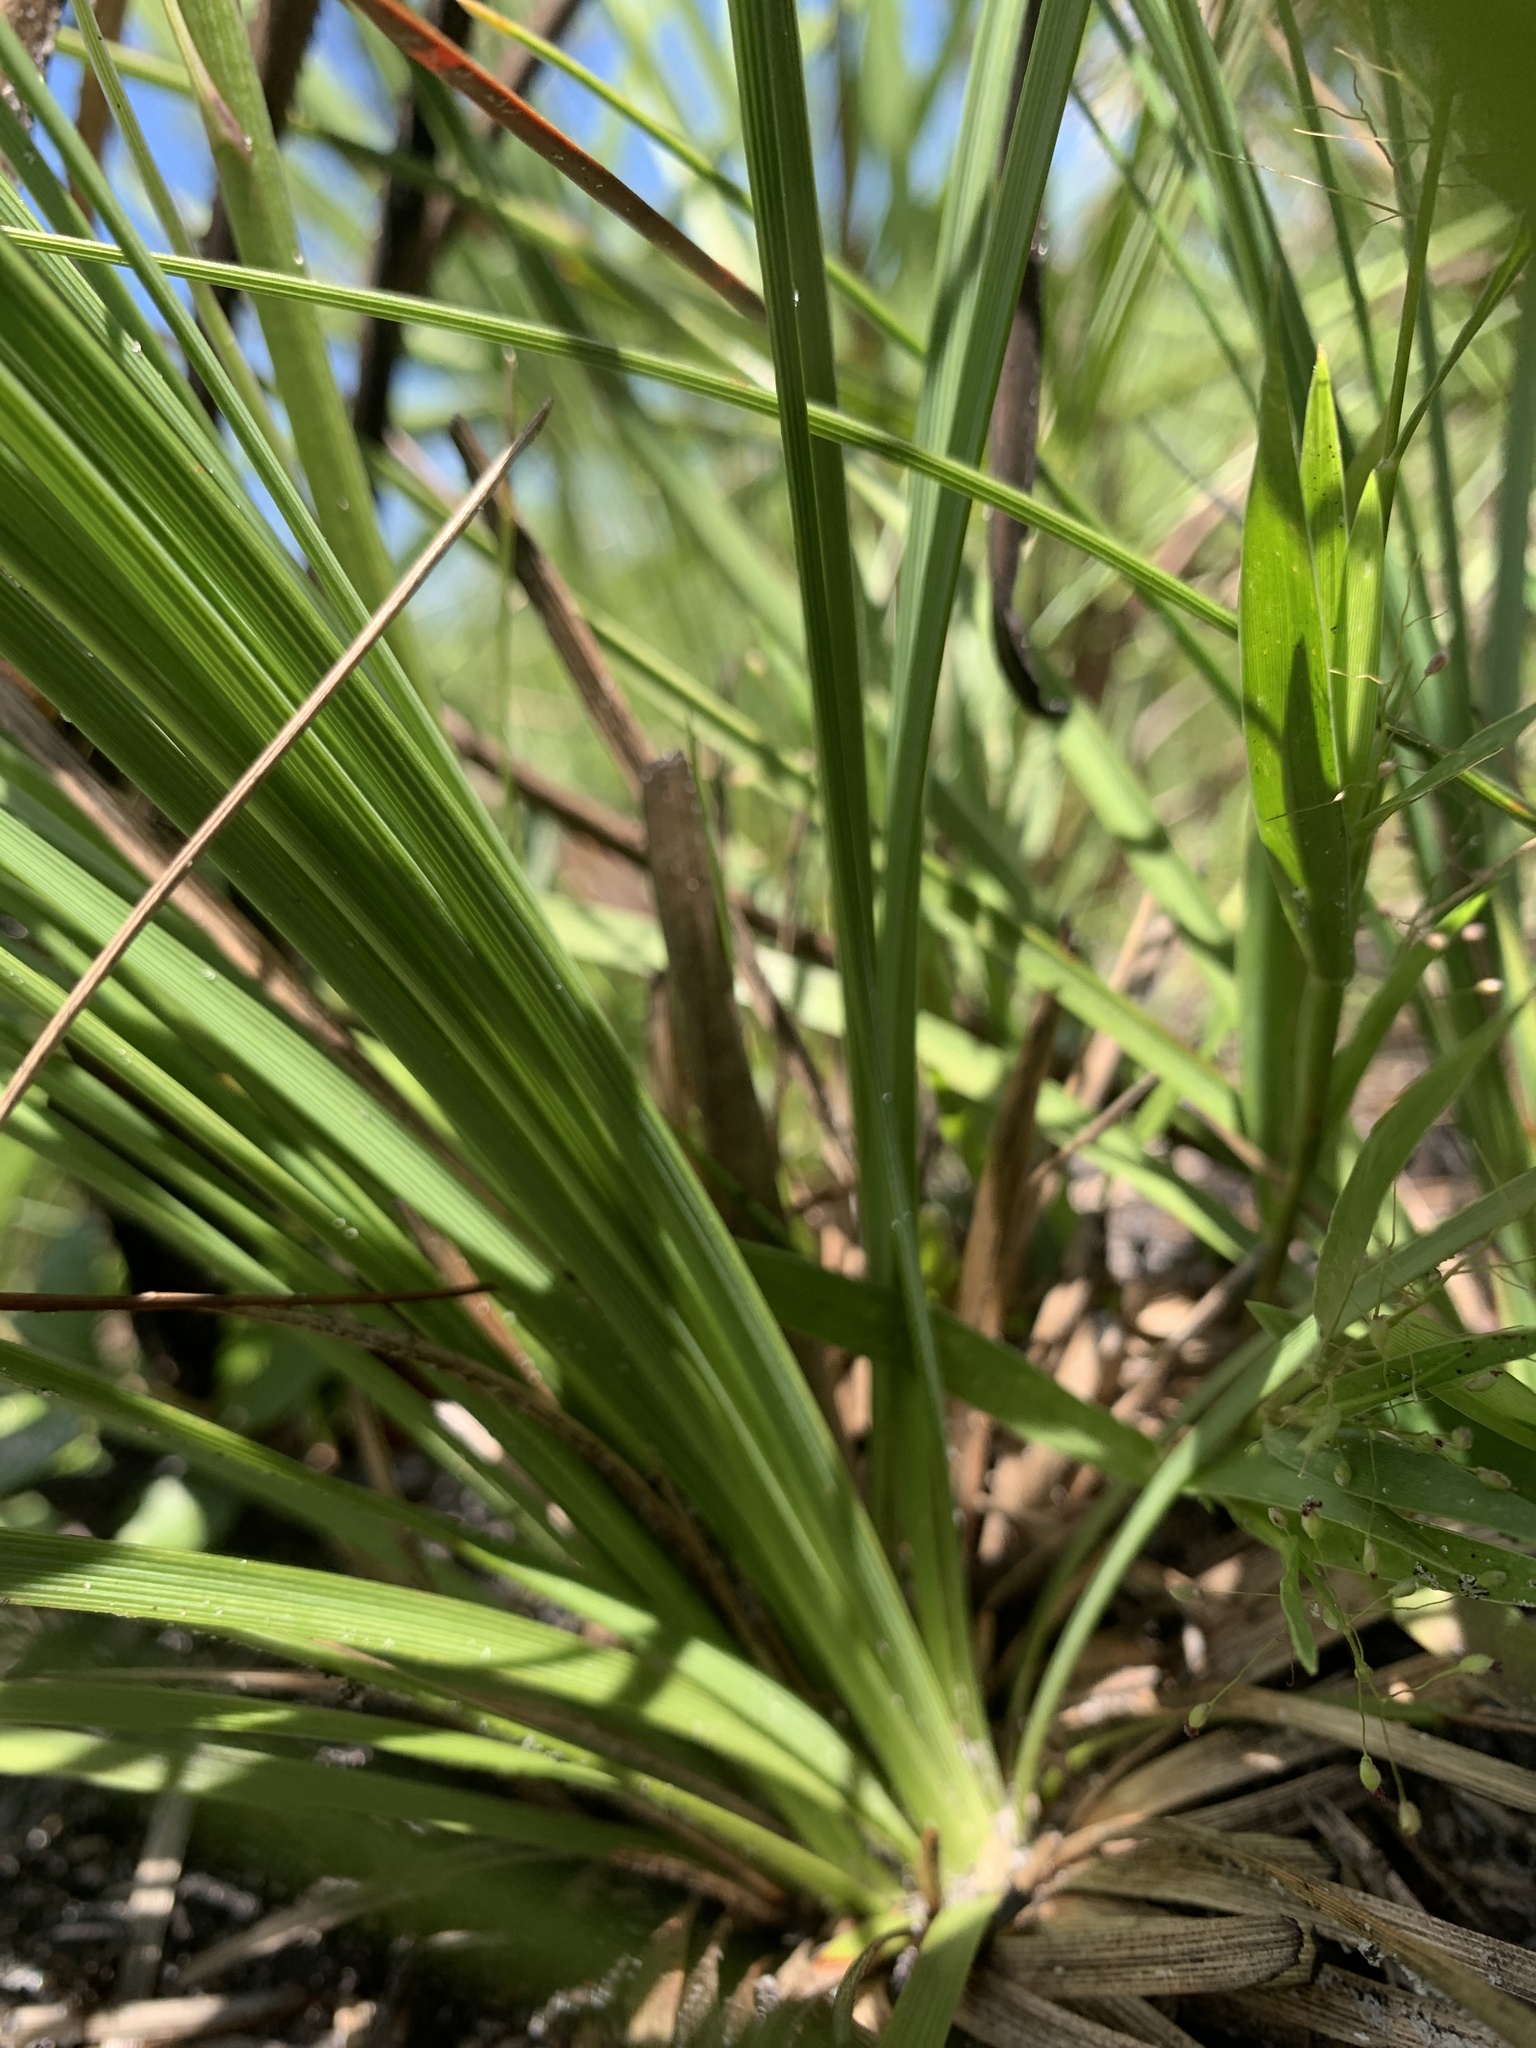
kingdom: Plantae
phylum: Tracheophyta
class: Liliopsida
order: Asparagales
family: Asparagaceae
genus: Nolina
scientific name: Nolina atopocarpa
